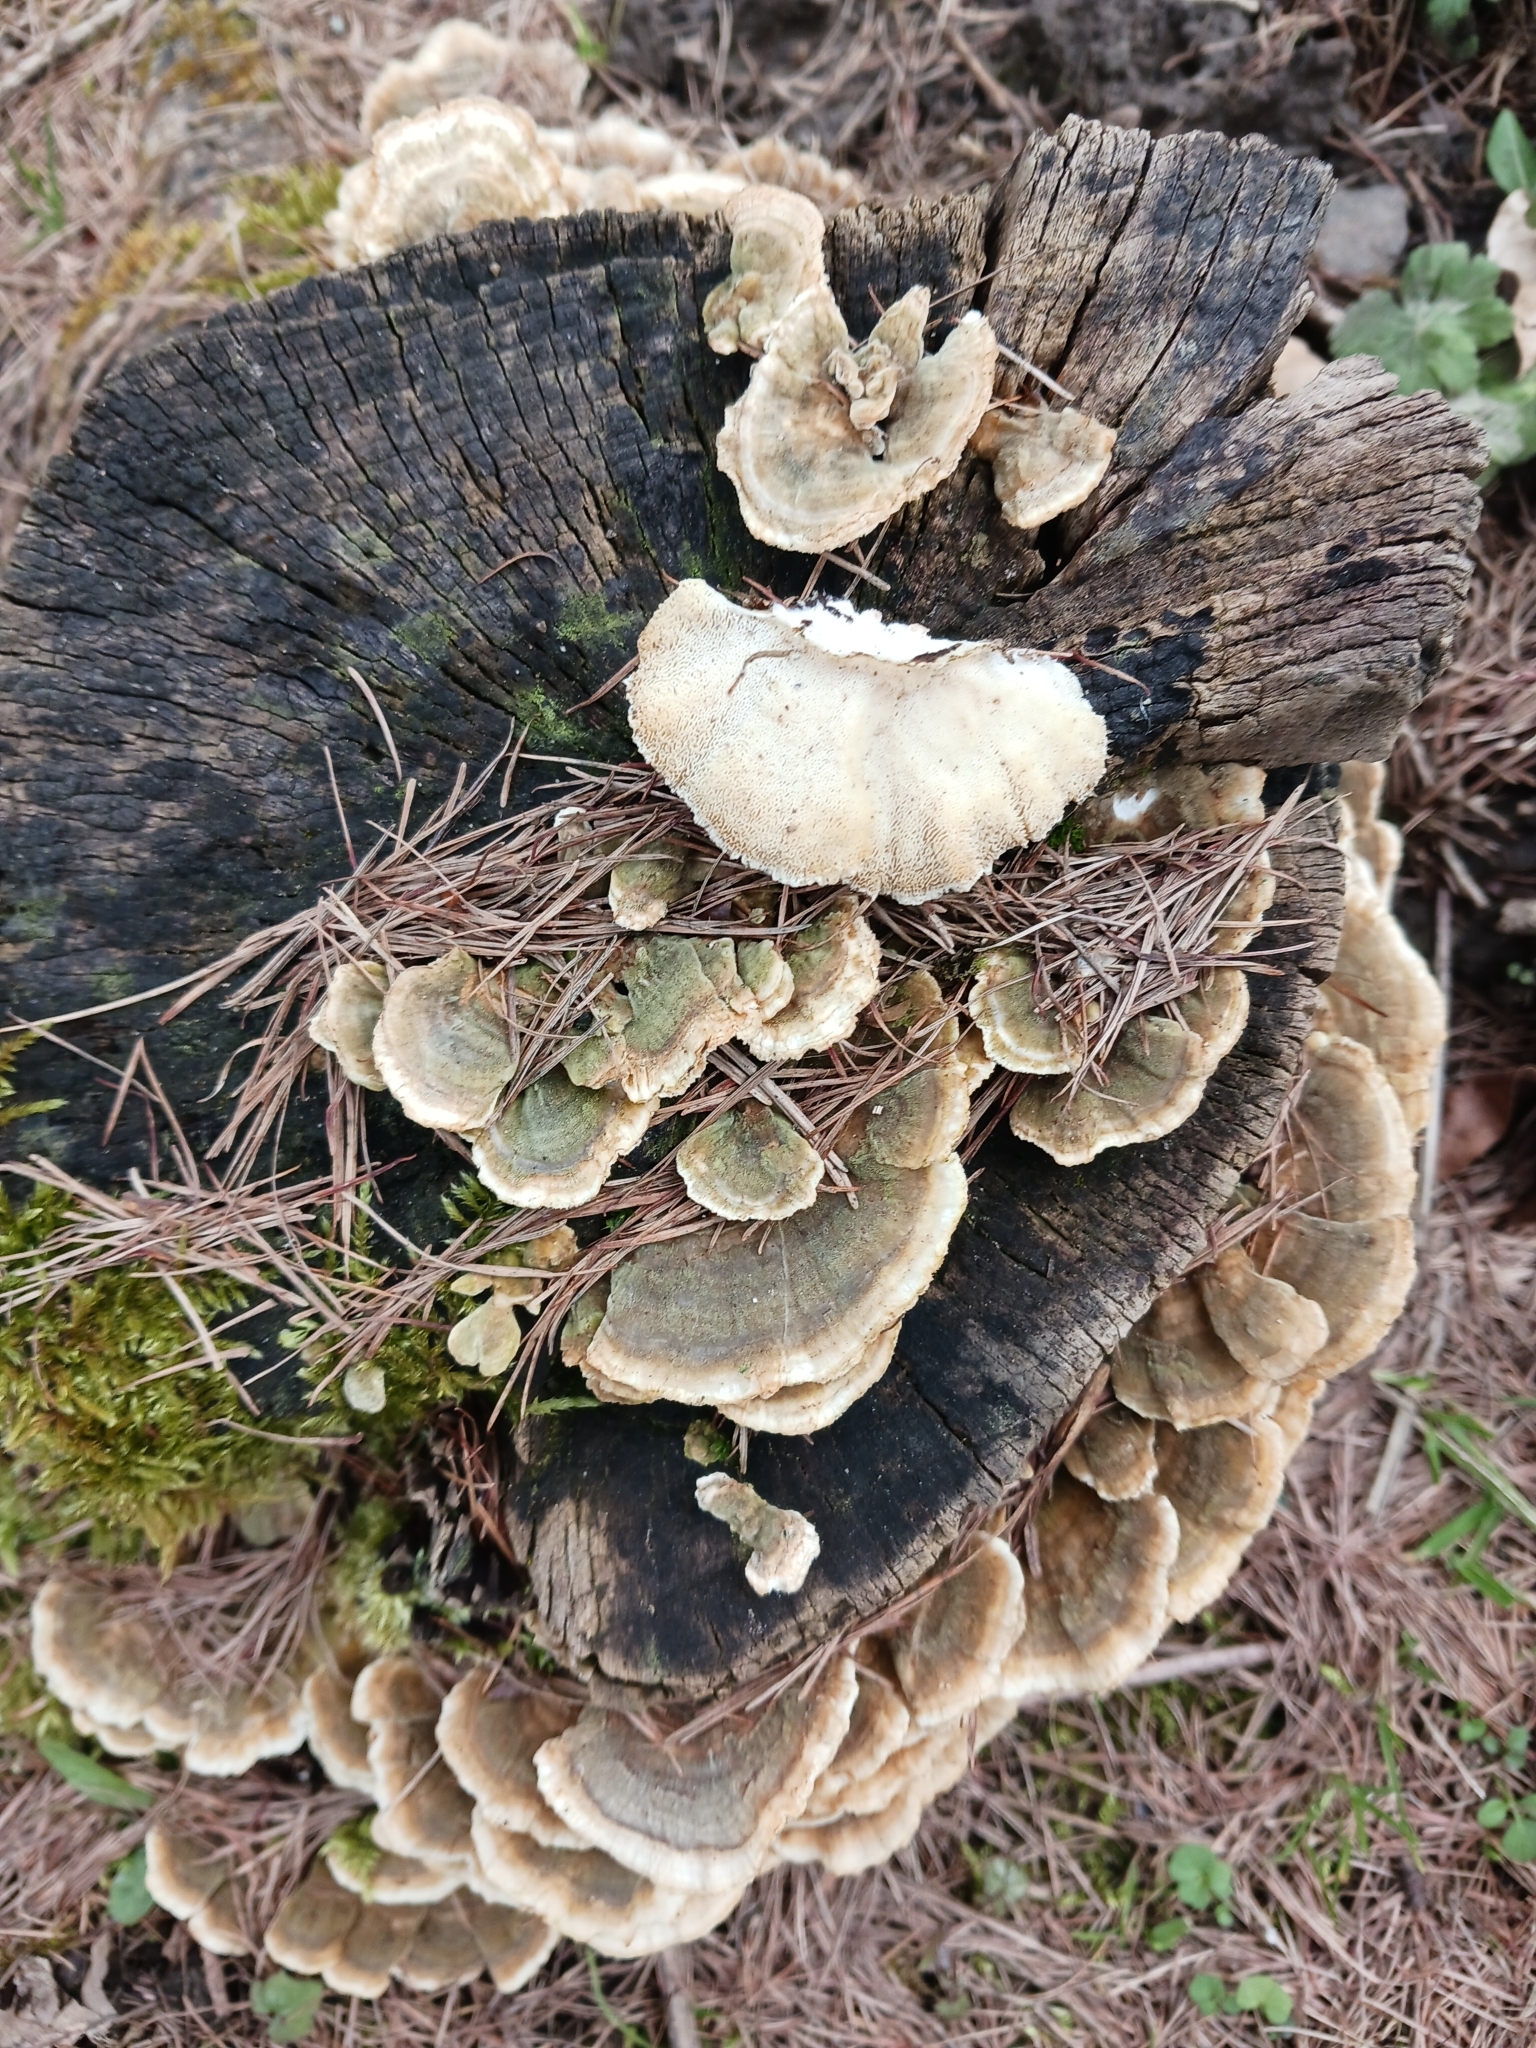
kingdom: Fungi
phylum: Basidiomycota
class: Agaricomycetes
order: Polyporales
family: Polyporaceae
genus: Trametes
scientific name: Trametes versicolor
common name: Turkeytail
